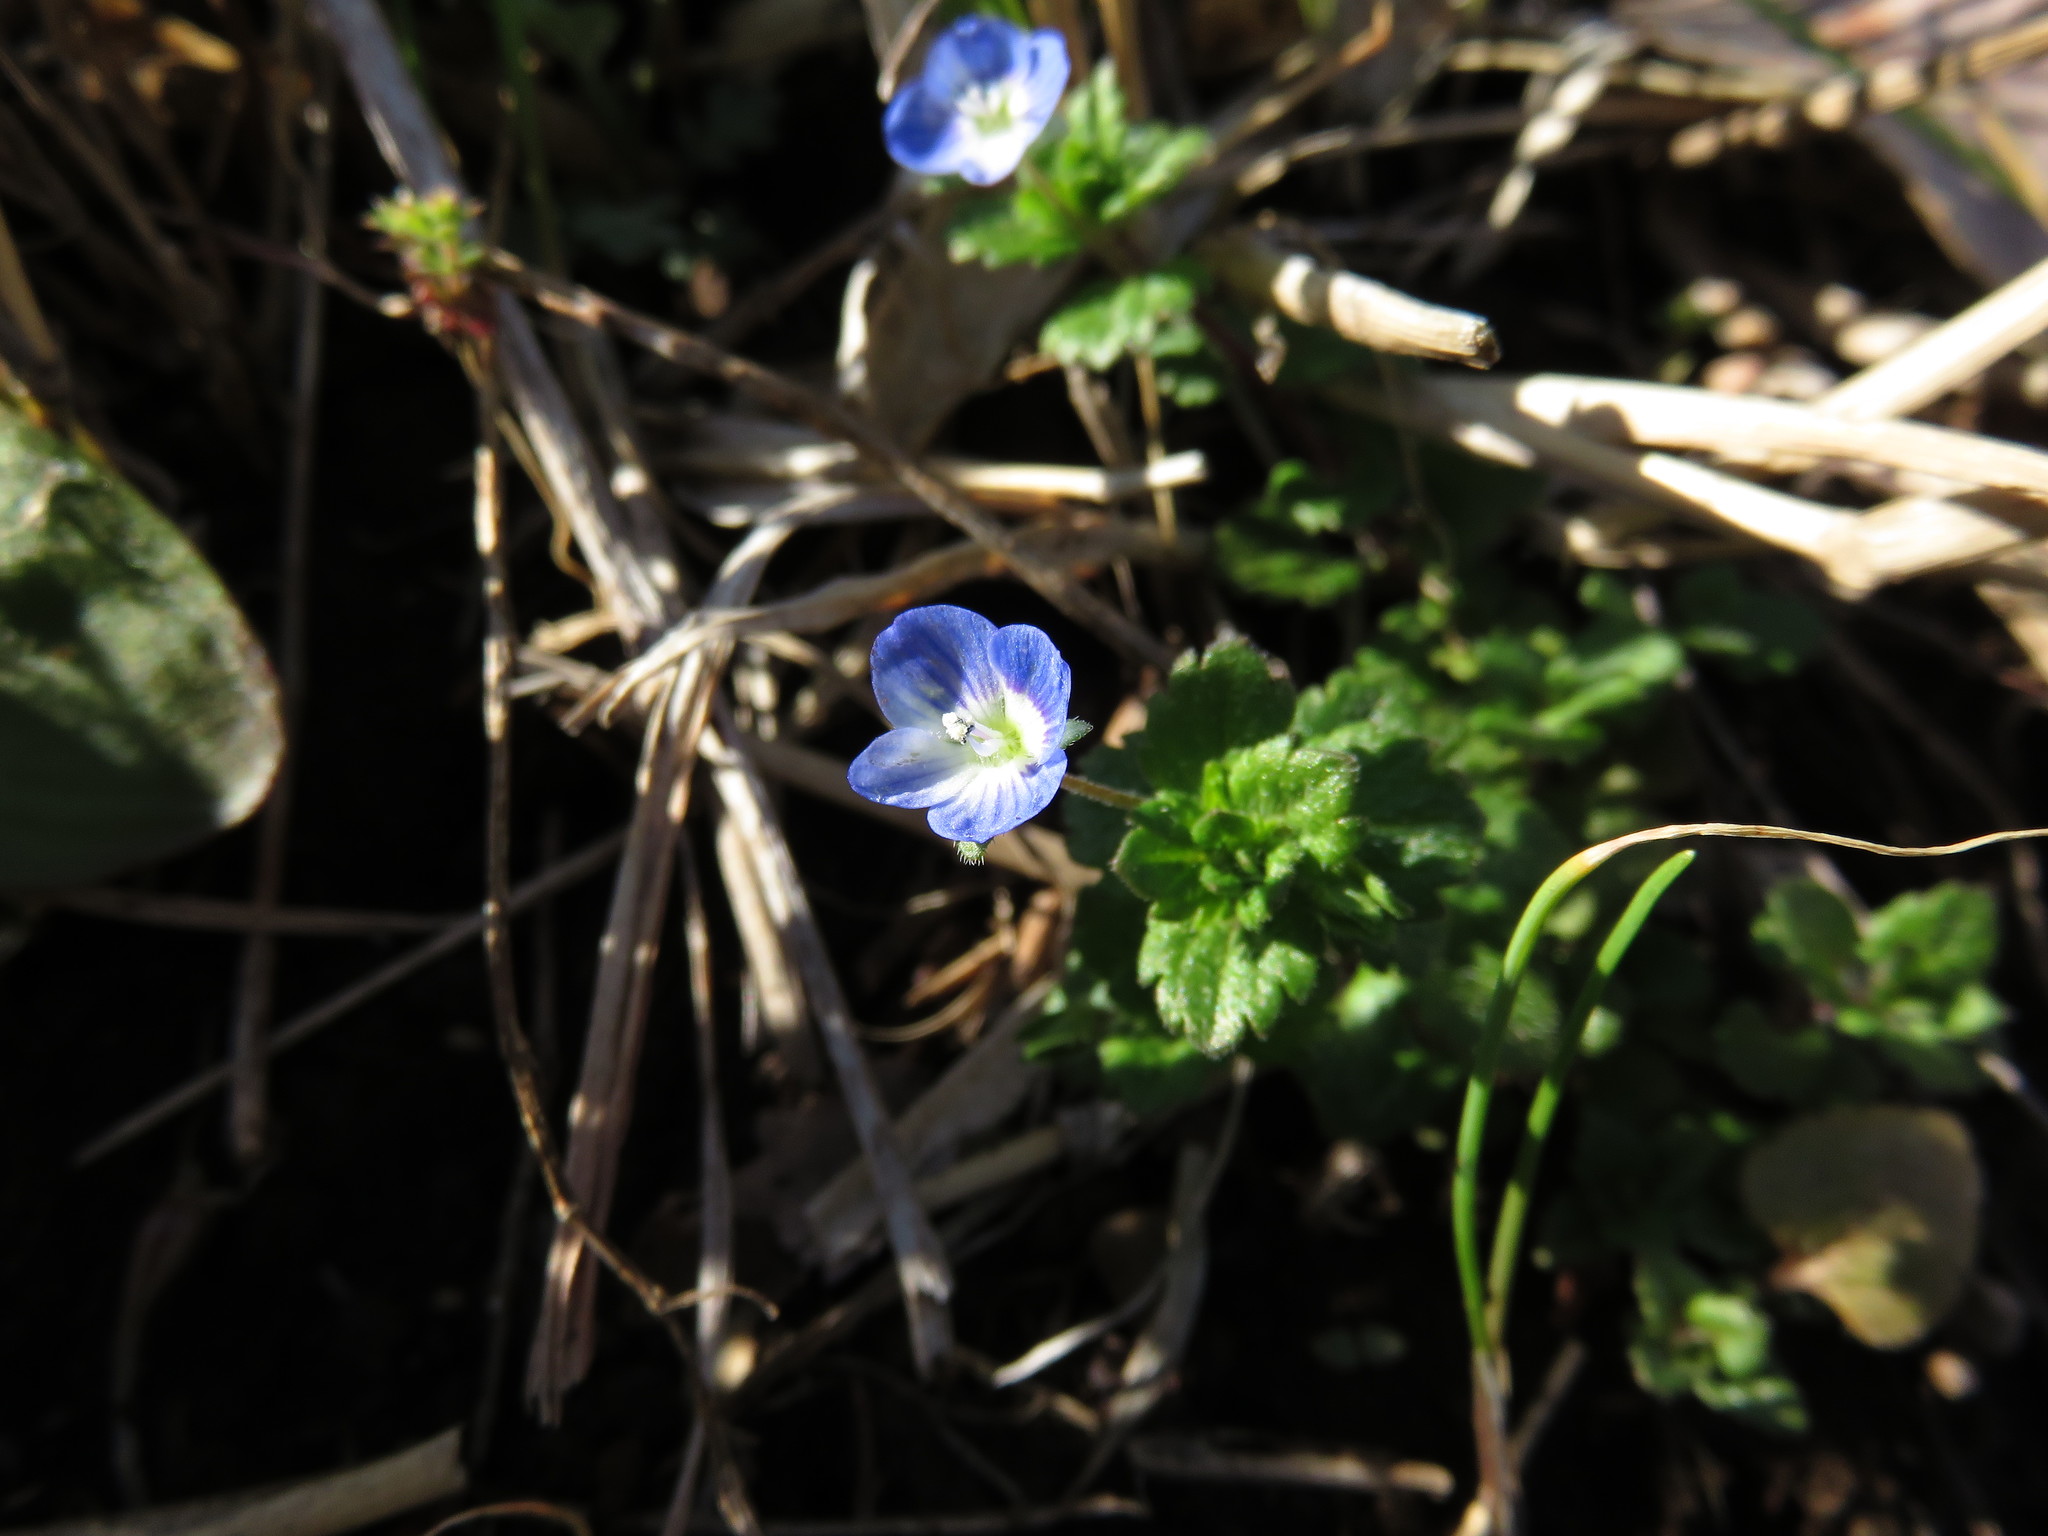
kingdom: Plantae
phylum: Tracheophyta
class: Magnoliopsida
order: Lamiales
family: Plantaginaceae
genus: Veronica
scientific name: Veronica persica
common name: Common field-speedwell
